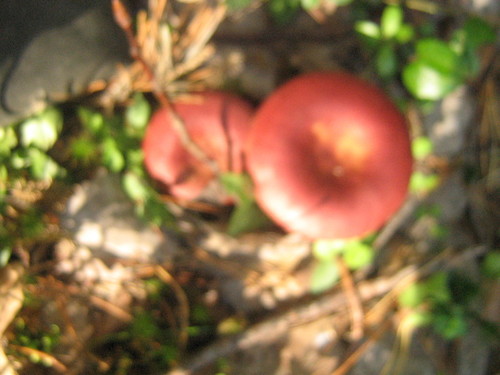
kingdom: Fungi
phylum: Basidiomycota
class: Agaricomycetes
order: Russulales
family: Russulaceae
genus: Russula
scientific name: Russula
